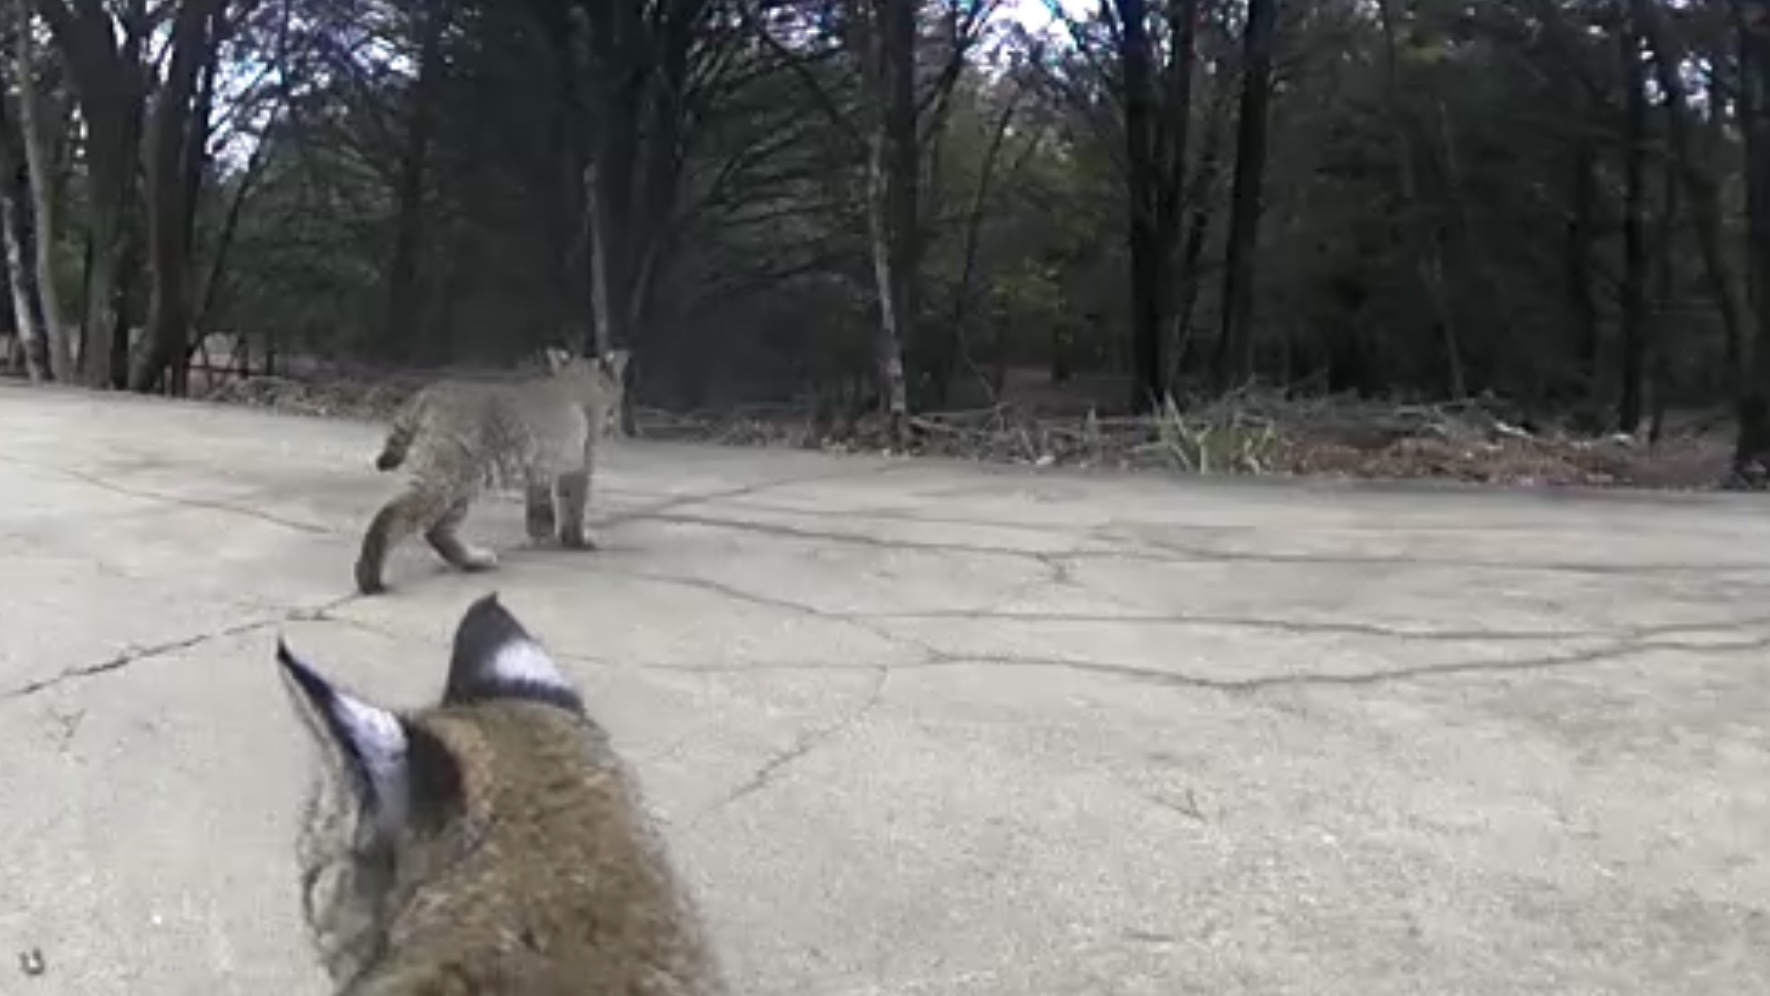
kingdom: Animalia
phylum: Chordata
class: Mammalia
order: Carnivora
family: Felidae
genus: Lynx
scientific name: Lynx rufus
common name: Bobcat
